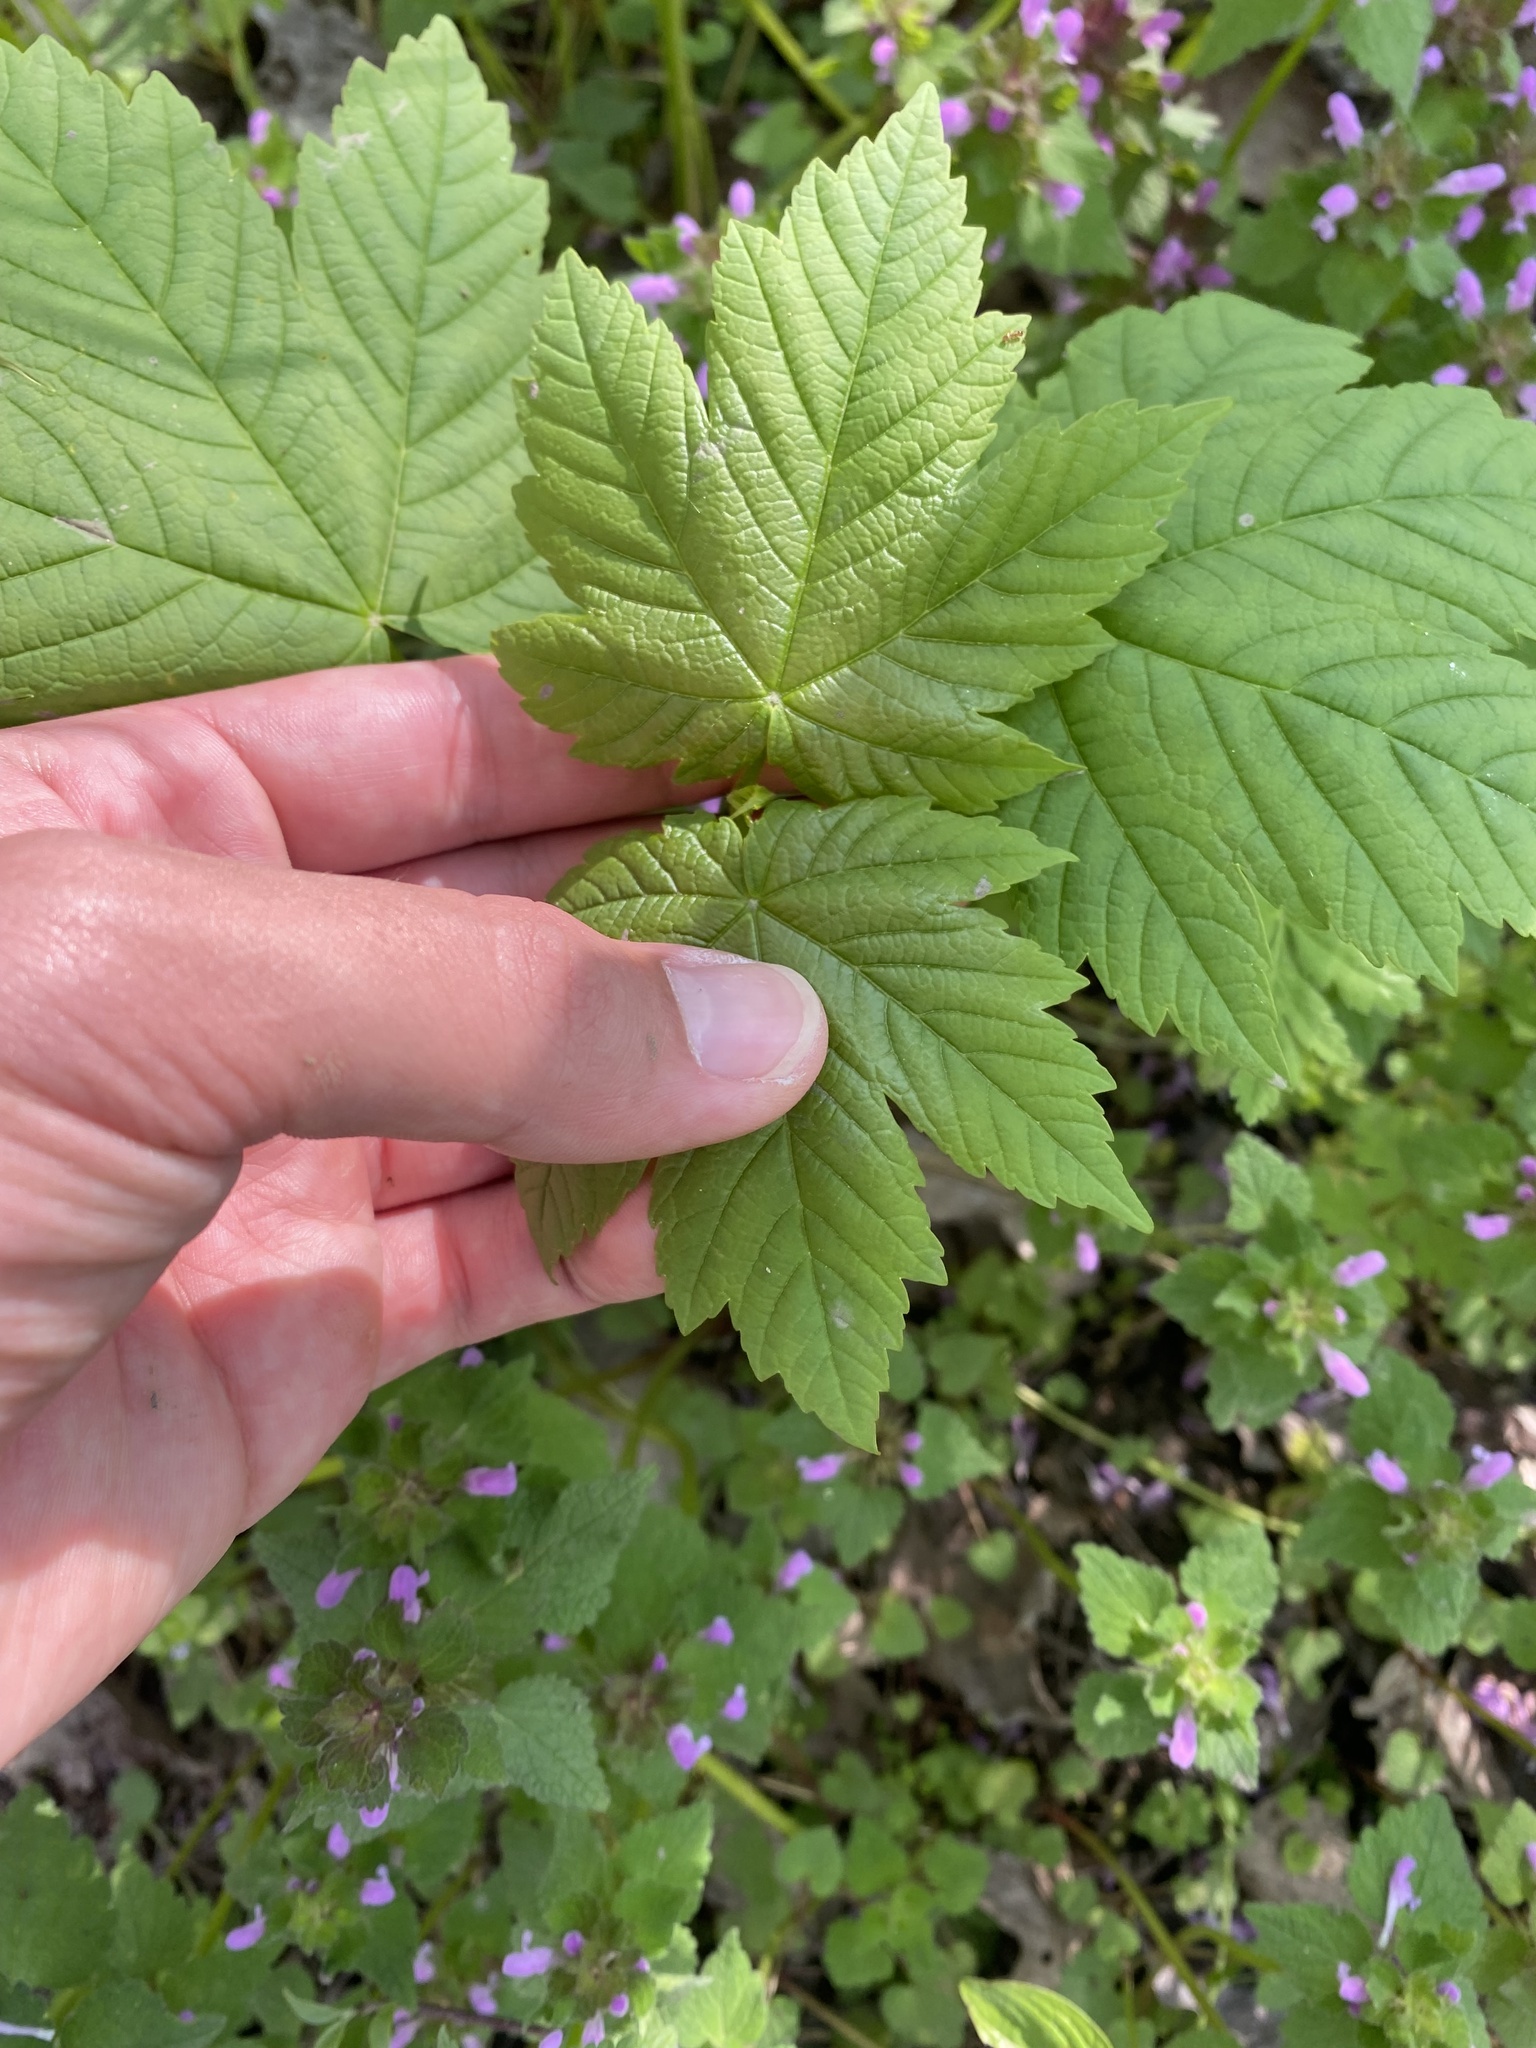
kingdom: Plantae
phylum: Tracheophyta
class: Magnoliopsida
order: Sapindales
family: Sapindaceae
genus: Acer
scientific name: Acer pseudoplatanus
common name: Sycamore
